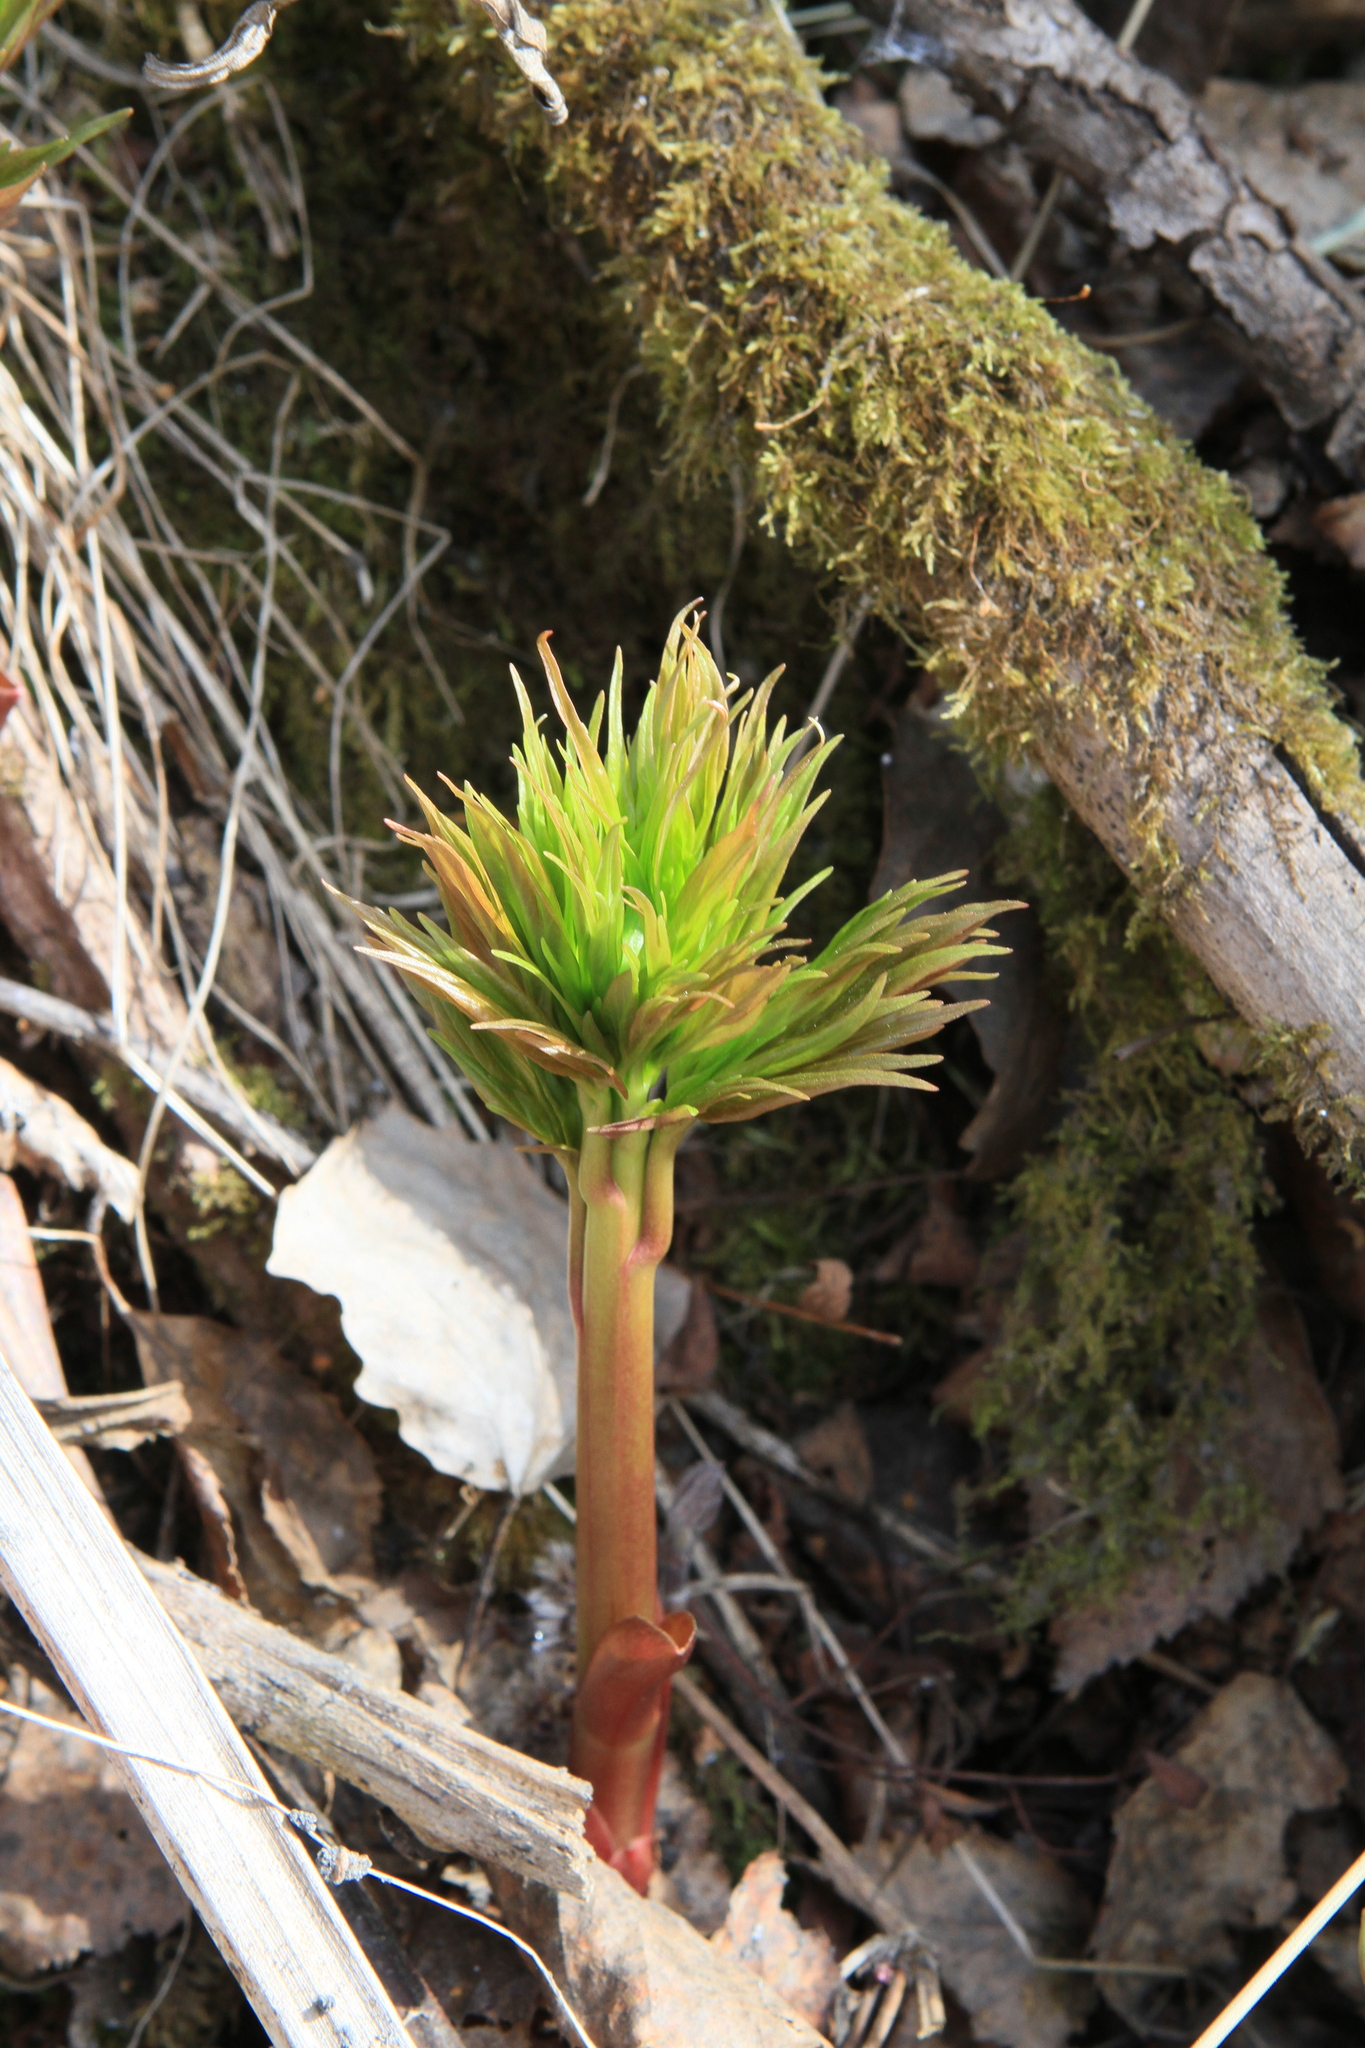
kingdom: Plantae
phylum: Tracheophyta
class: Magnoliopsida
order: Saxifragales
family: Paeoniaceae
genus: Paeonia
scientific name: Paeonia anomala
